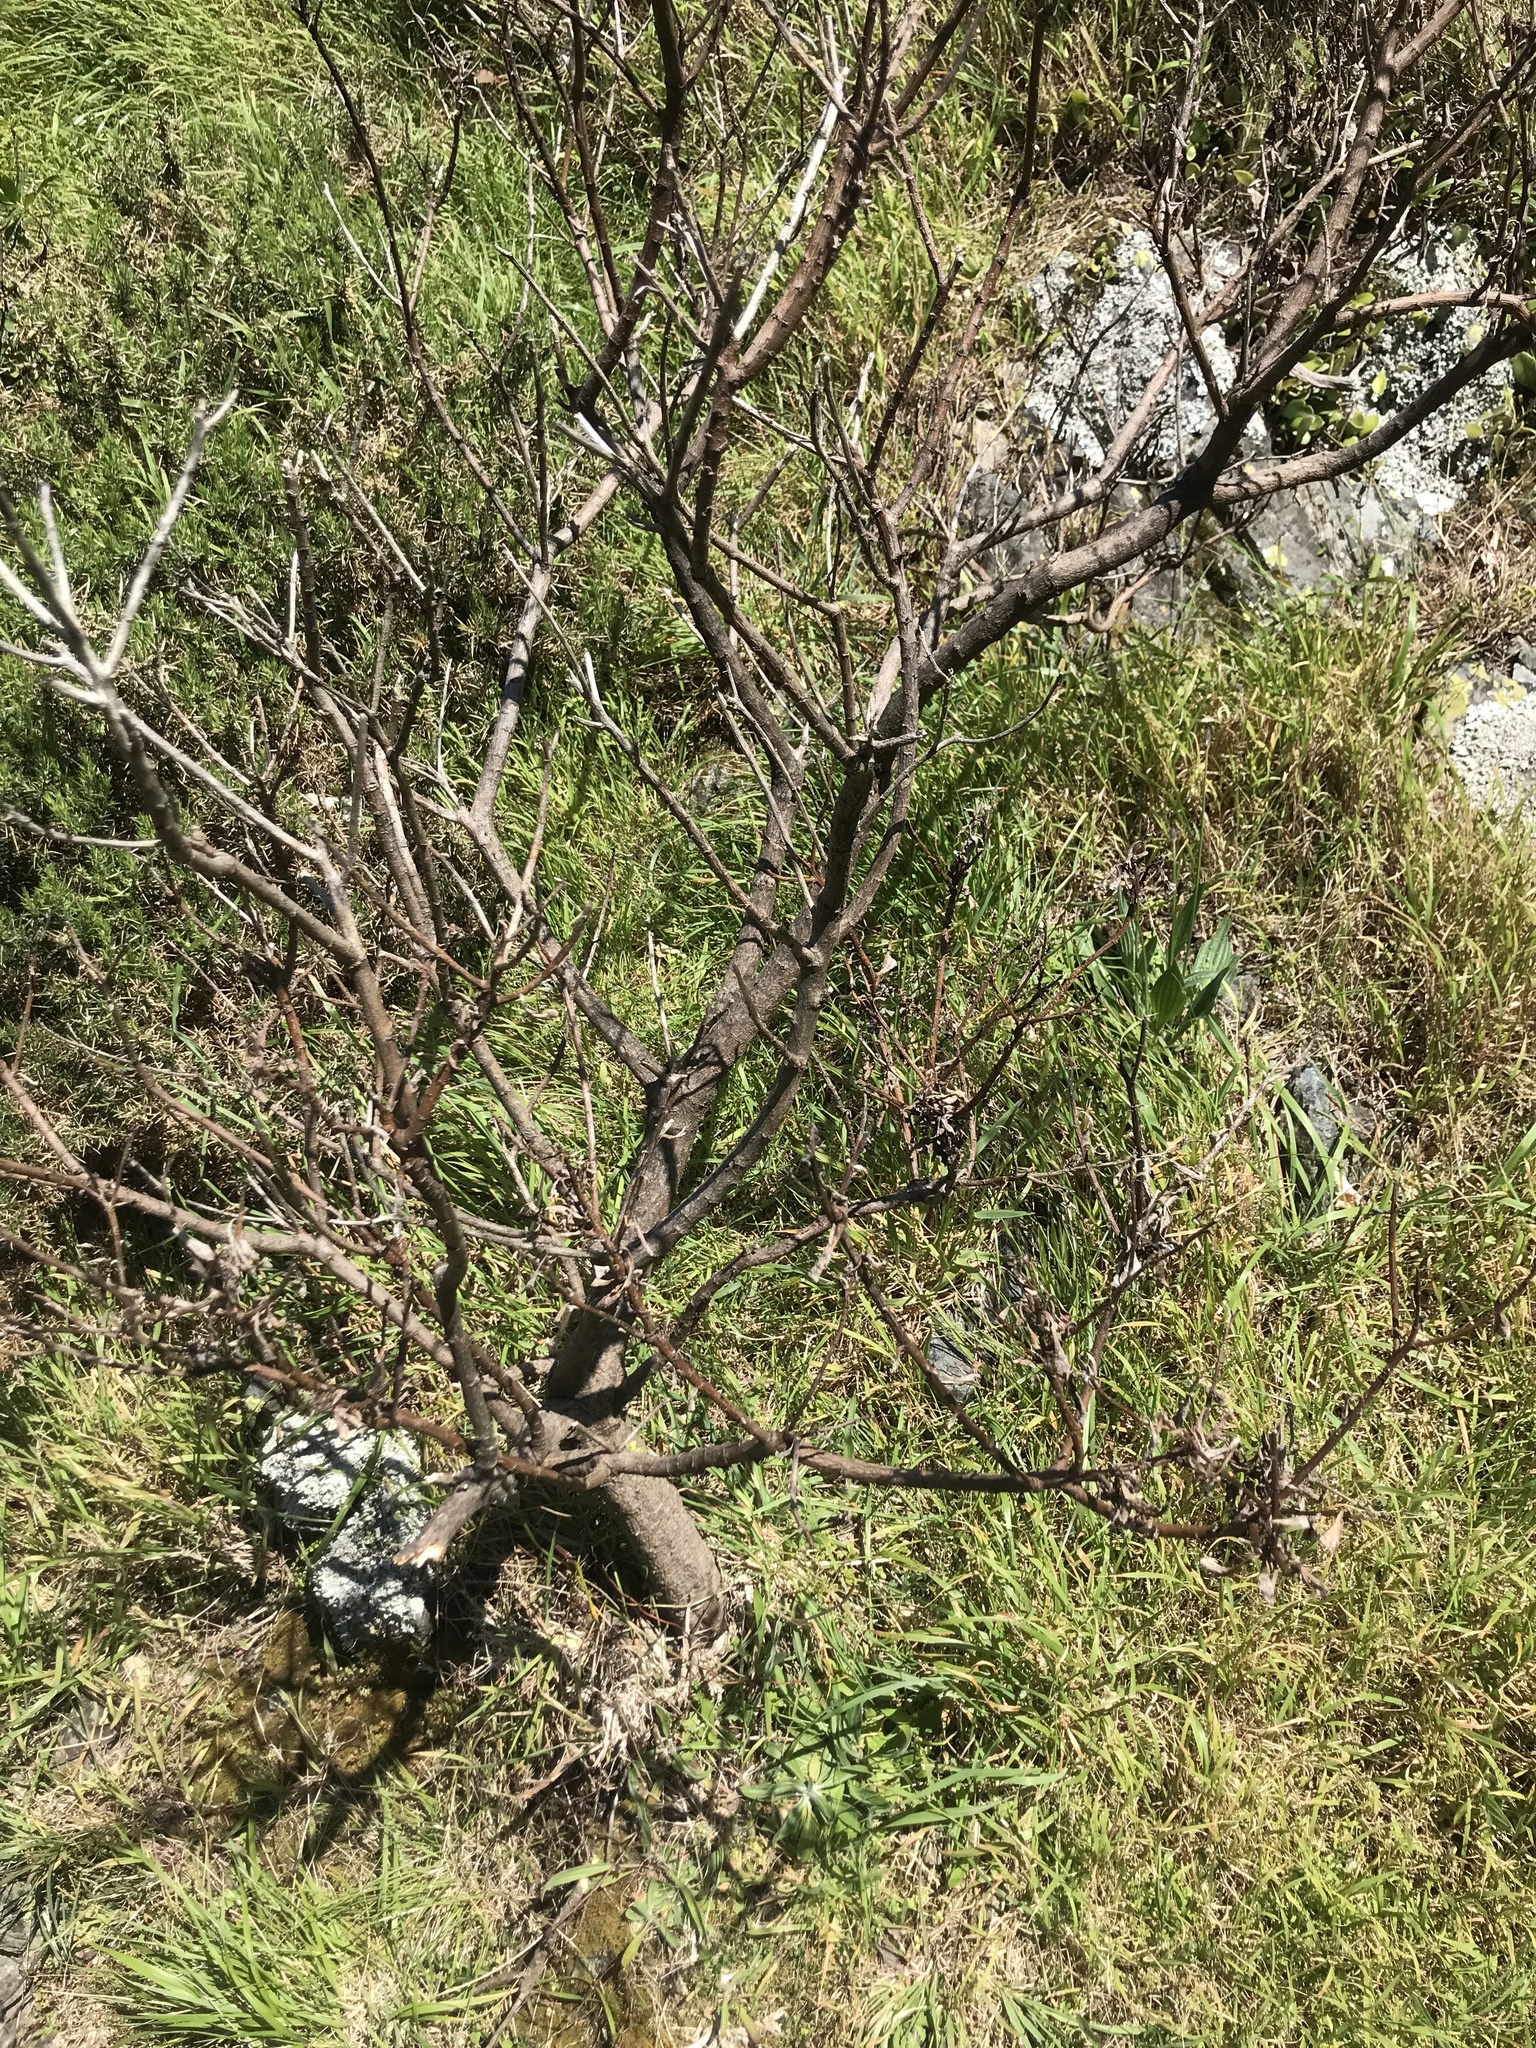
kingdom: Plantae
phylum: Tracheophyta
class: Magnoliopsida
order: Asterales
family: Asteraceae
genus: Osteospermum
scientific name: Osteospermum moniliferum
